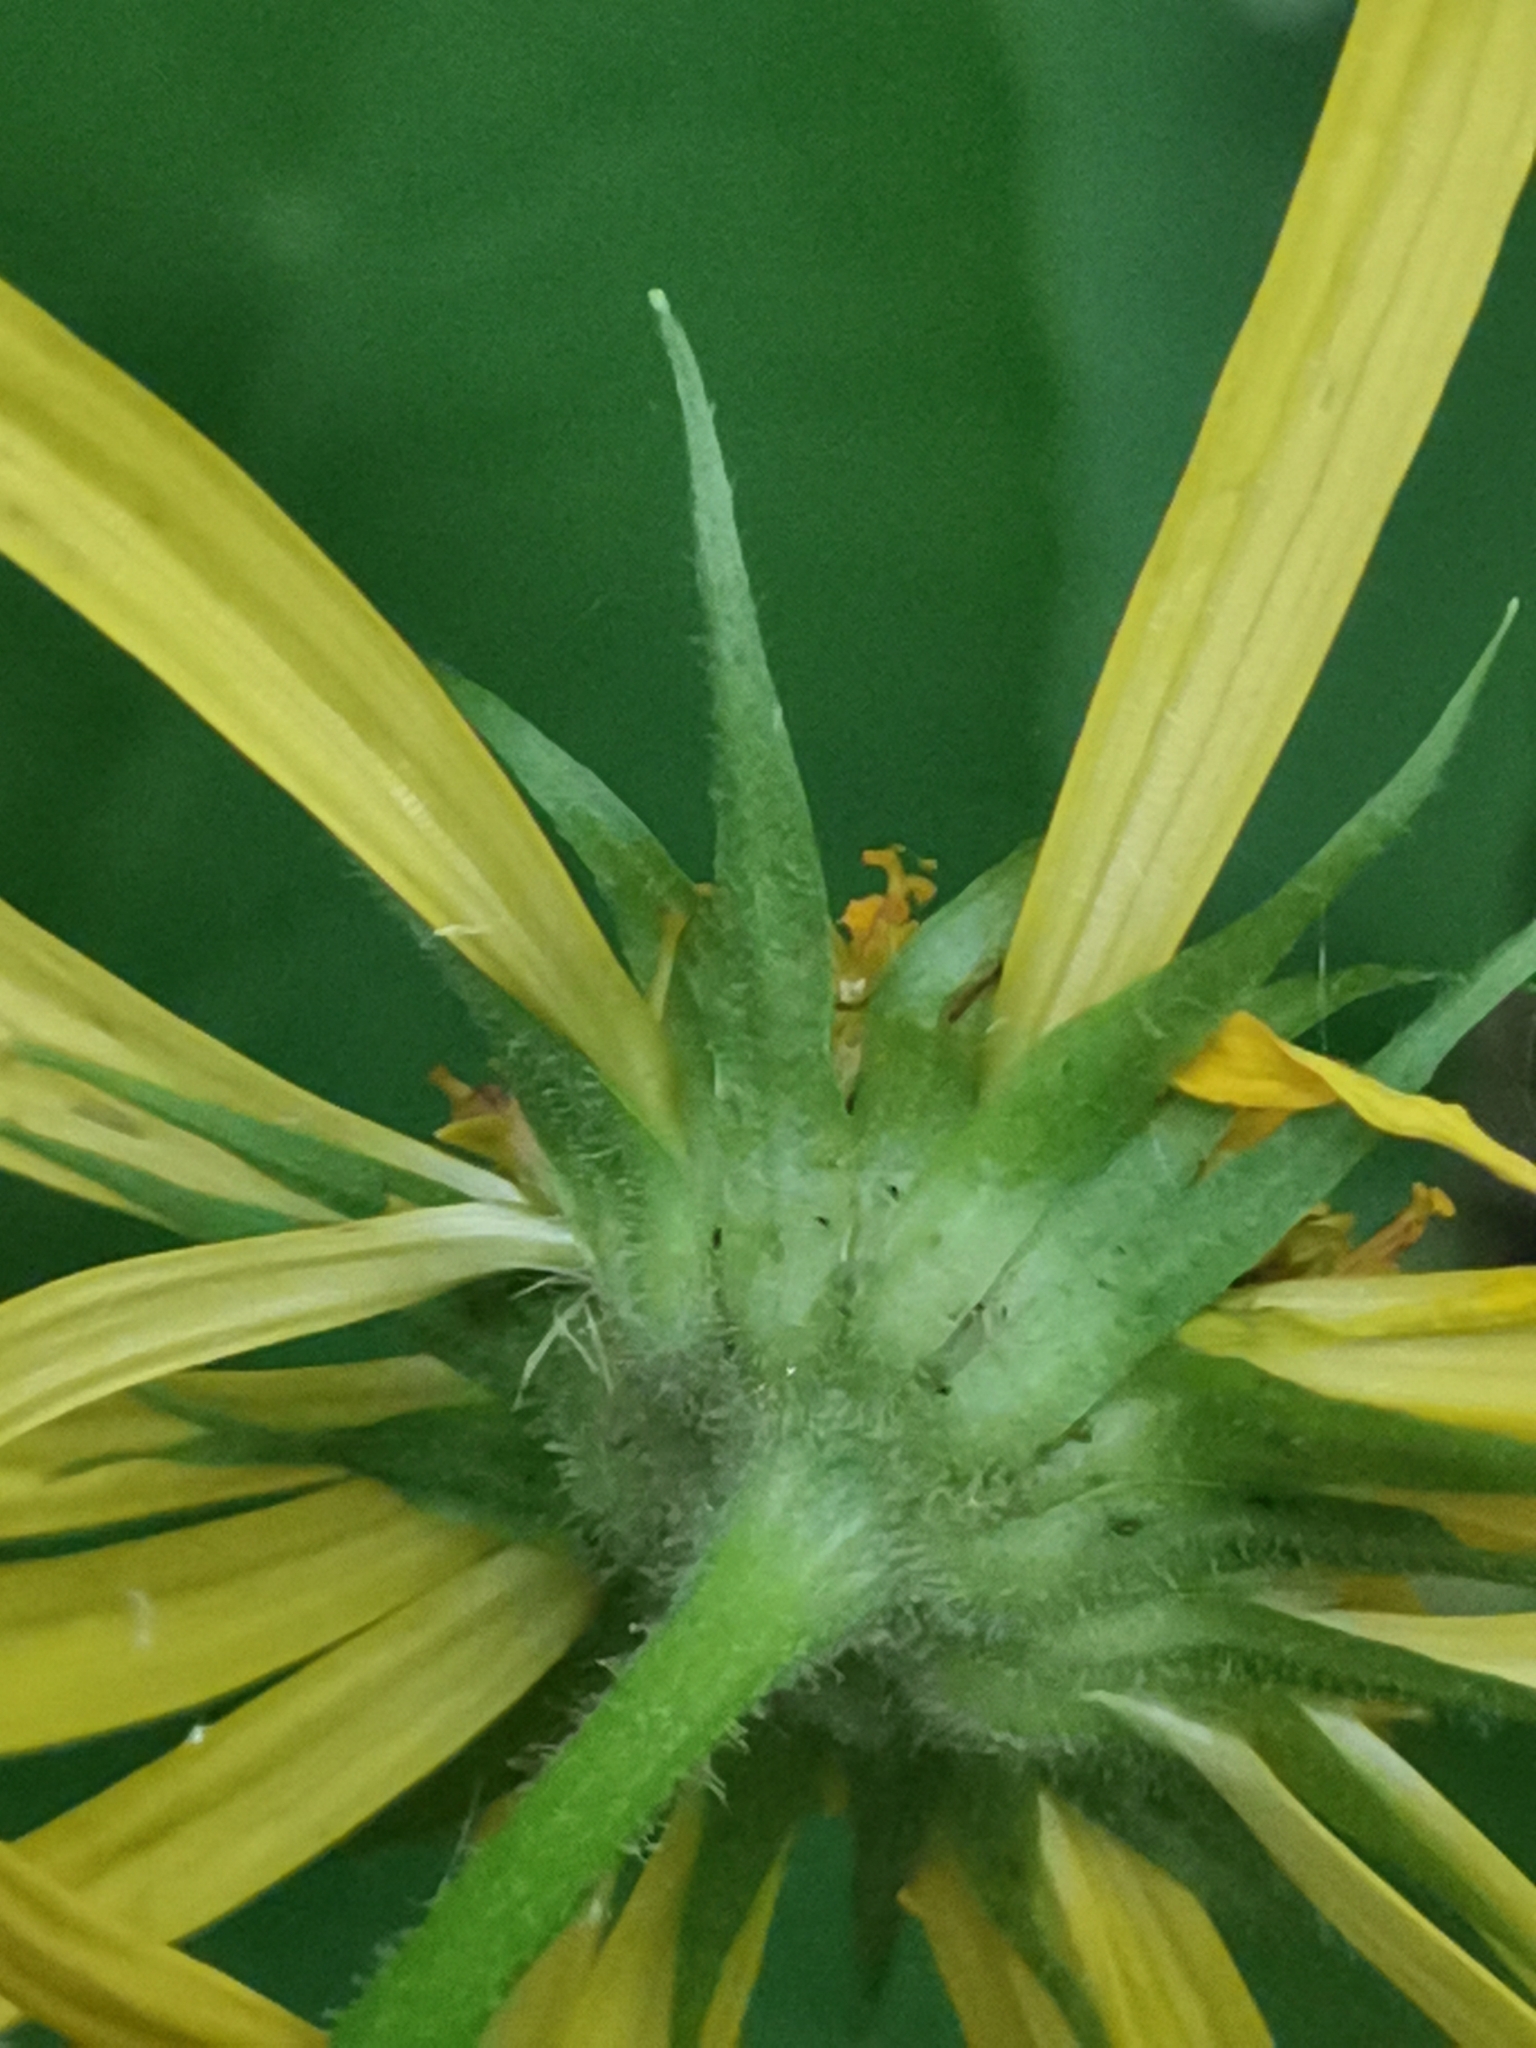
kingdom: Plantae
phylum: Tracheophyta
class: Magnoliopsida
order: Asterales
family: Asteraceae
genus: Doronicum
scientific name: Doronicum austriacum
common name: Austrian leopard's-bane
